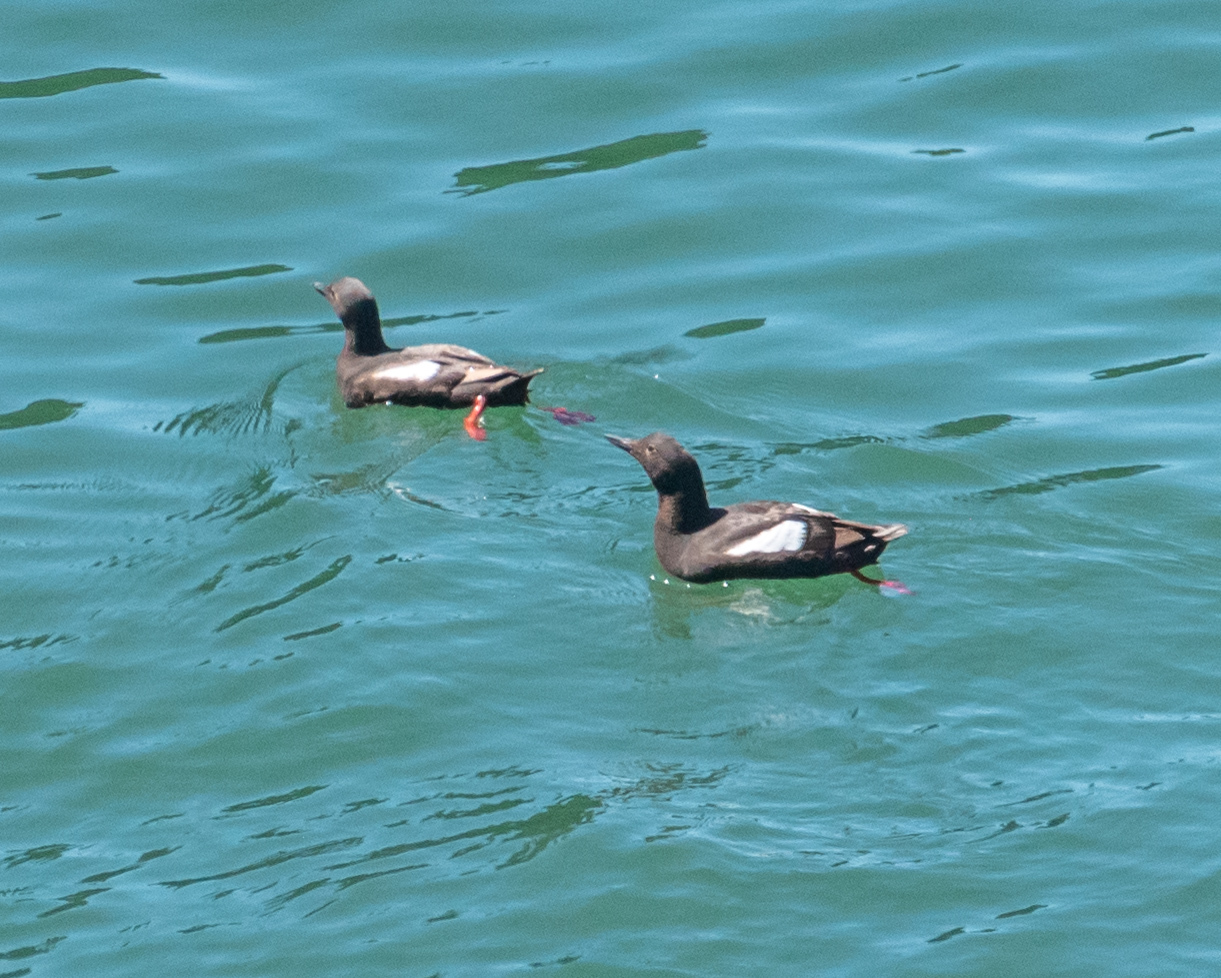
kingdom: Animalia
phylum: Chordata
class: Aves
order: Charadriiformes
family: Alcidae
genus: Cepphus
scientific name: Cepphus columba
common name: Pigeon guillemot
